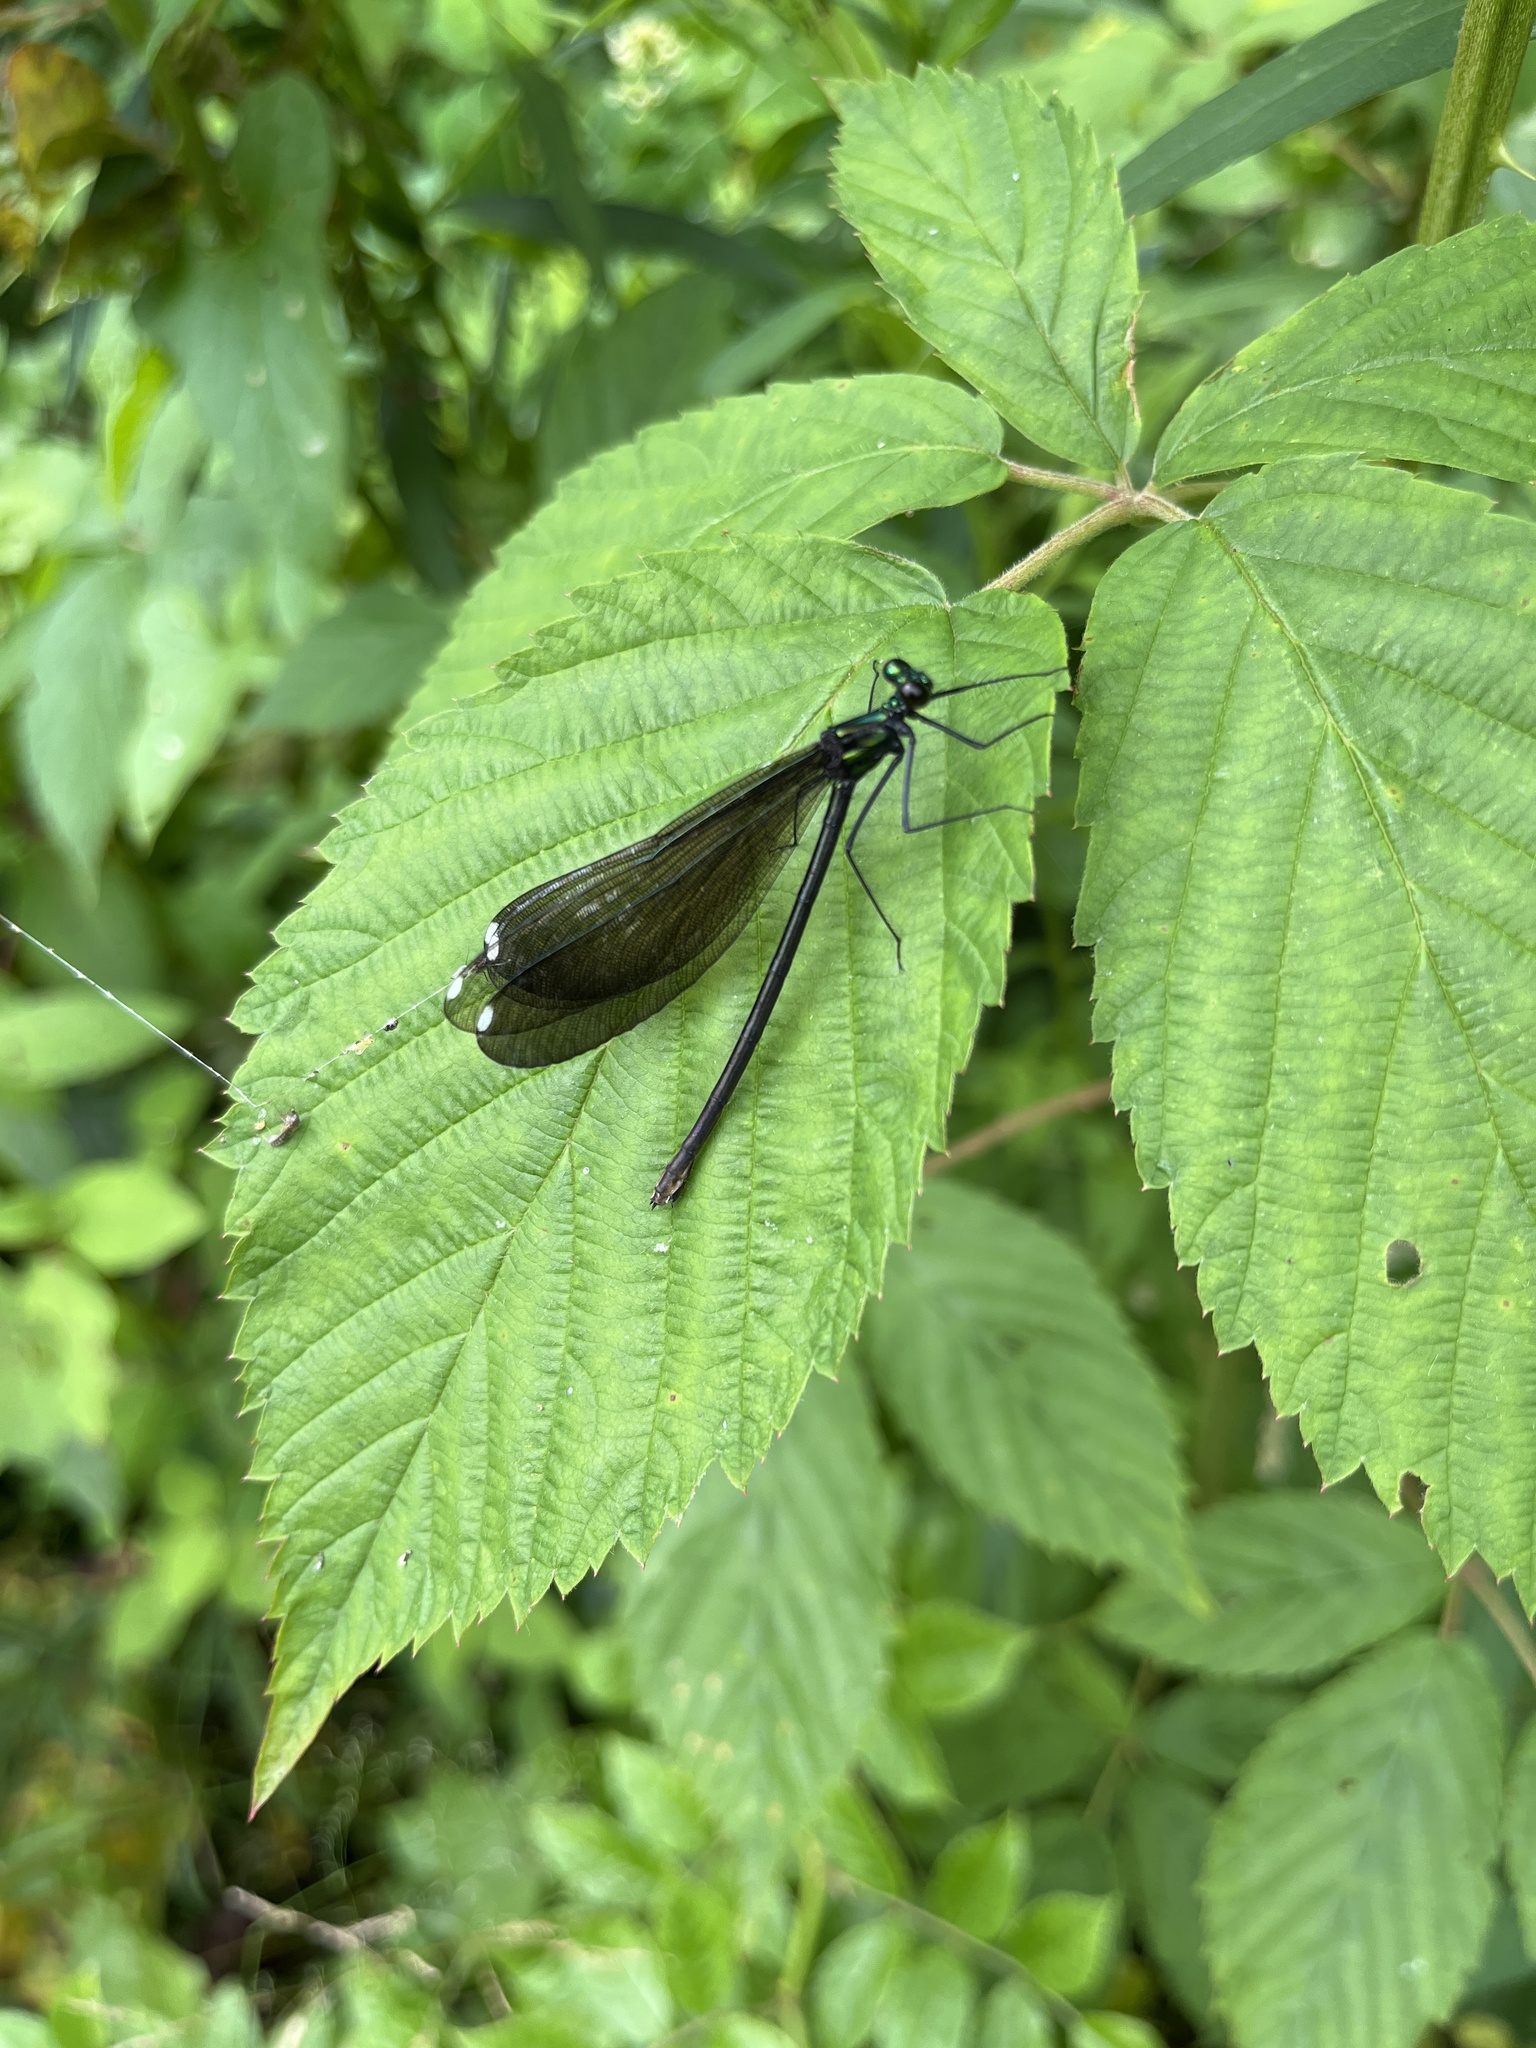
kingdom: Animalia
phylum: Arthropoda
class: Insecta
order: Odonata
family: Calopterygidae
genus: Calopteryx
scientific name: Calopteryx maculata
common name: Ebony jewelwing
